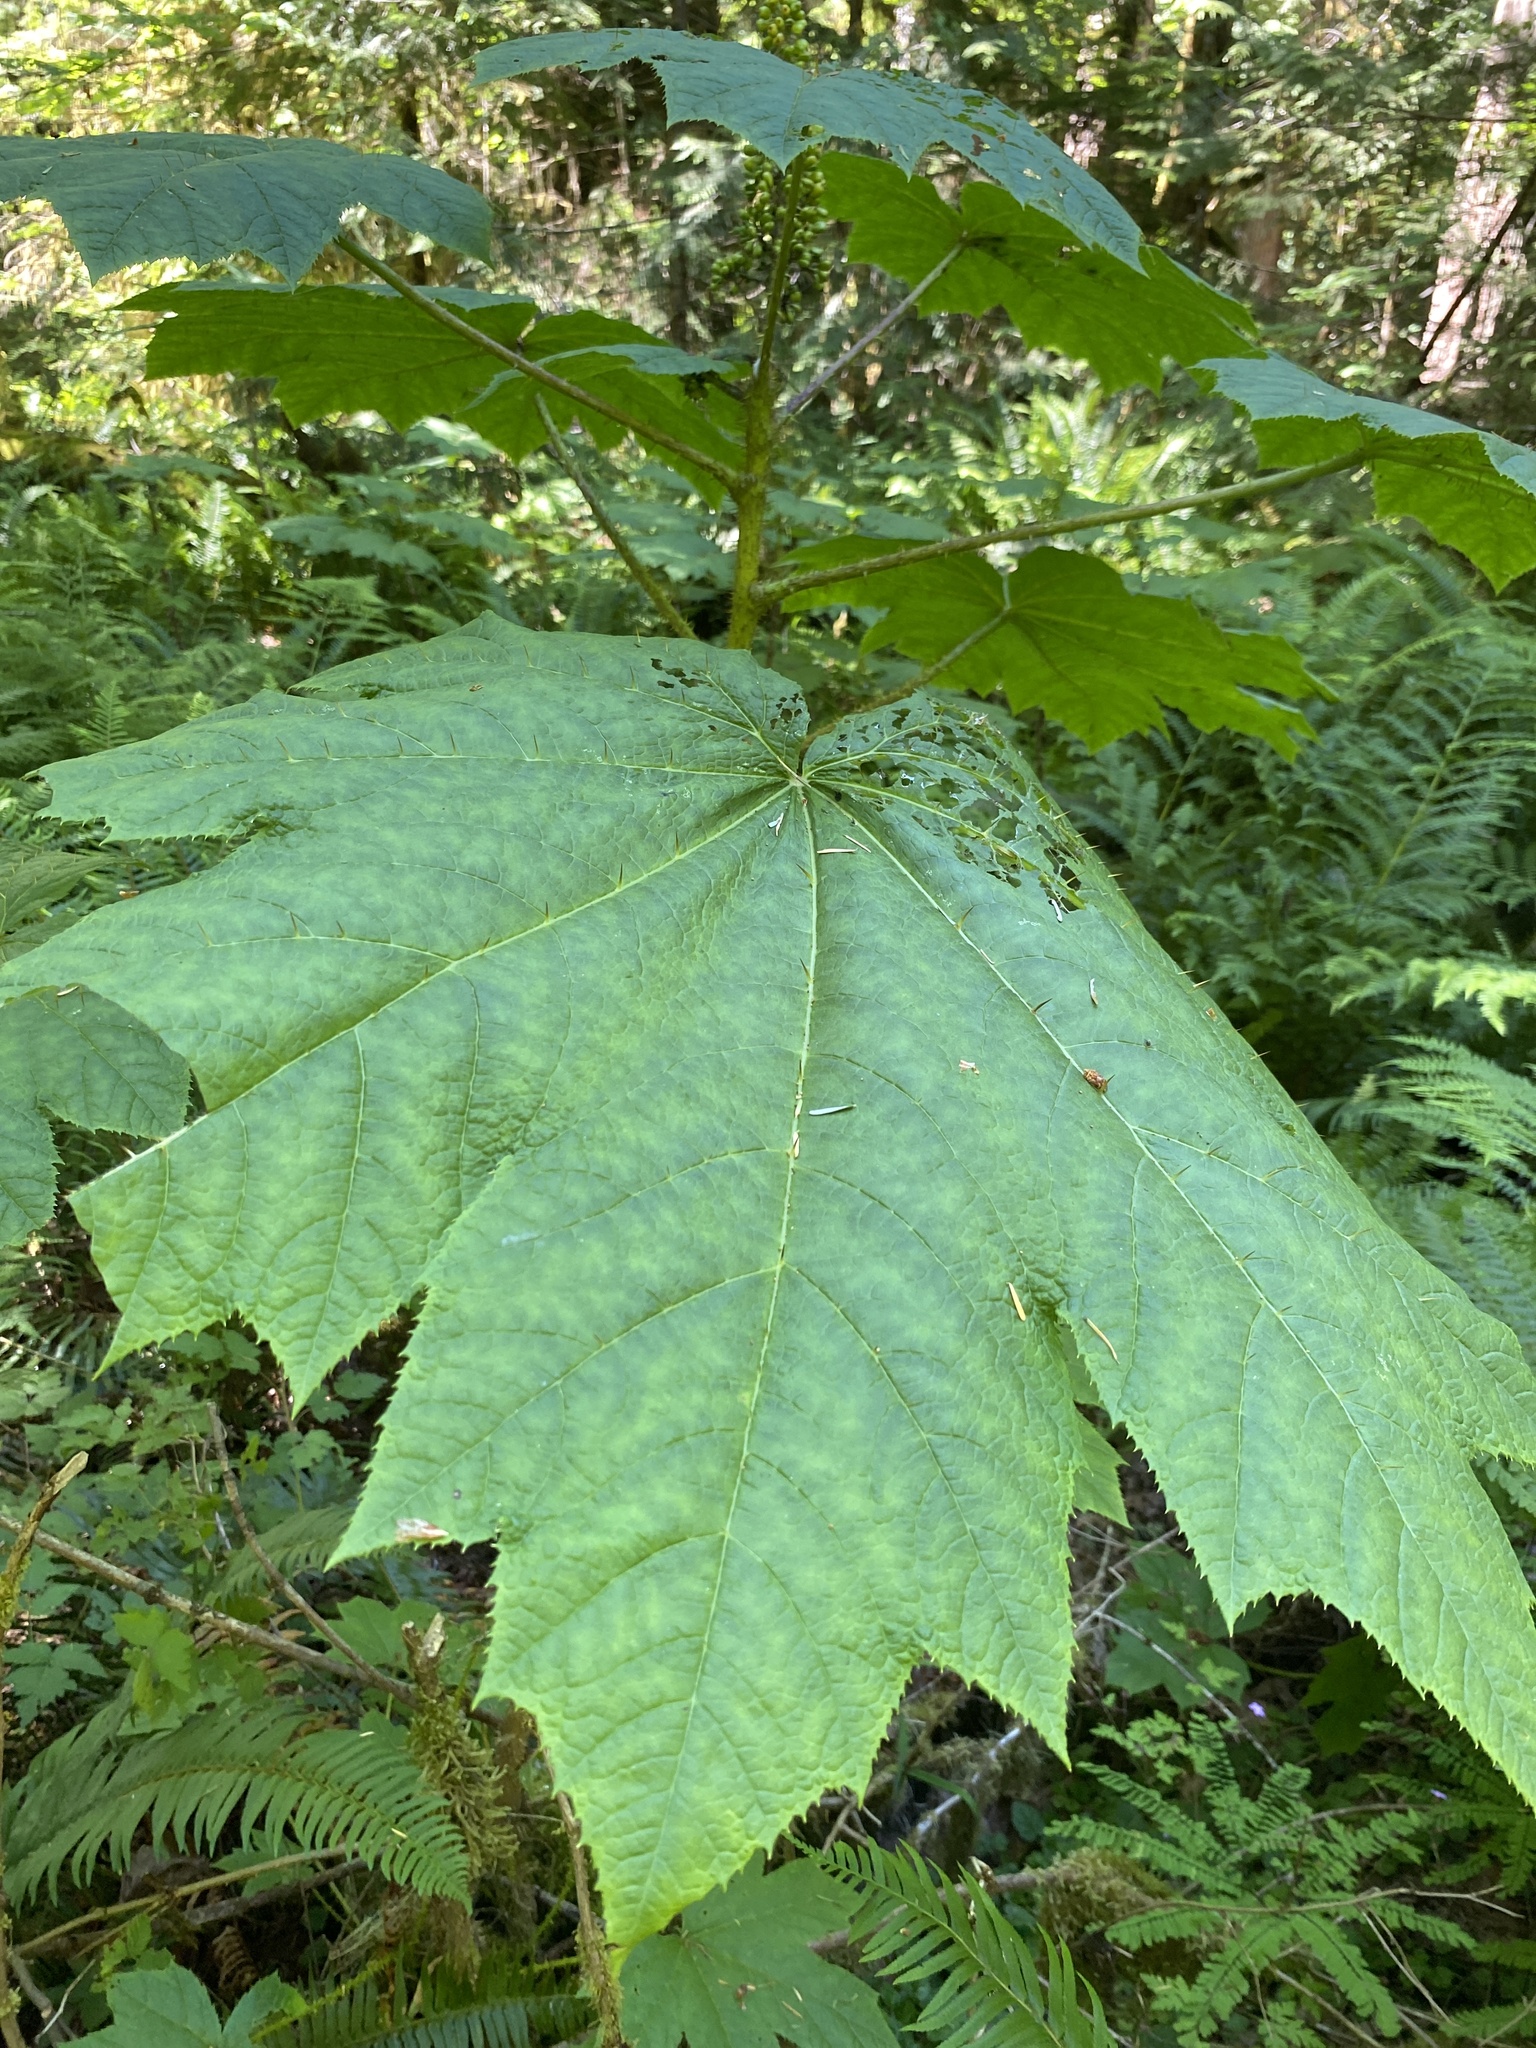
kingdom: Plantae
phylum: Tracheophyta
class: Magnoliopsida
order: Apiales
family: Araliaceae
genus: Oplopanax
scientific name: Oplopanax horridus
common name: Devil's walking-stick
